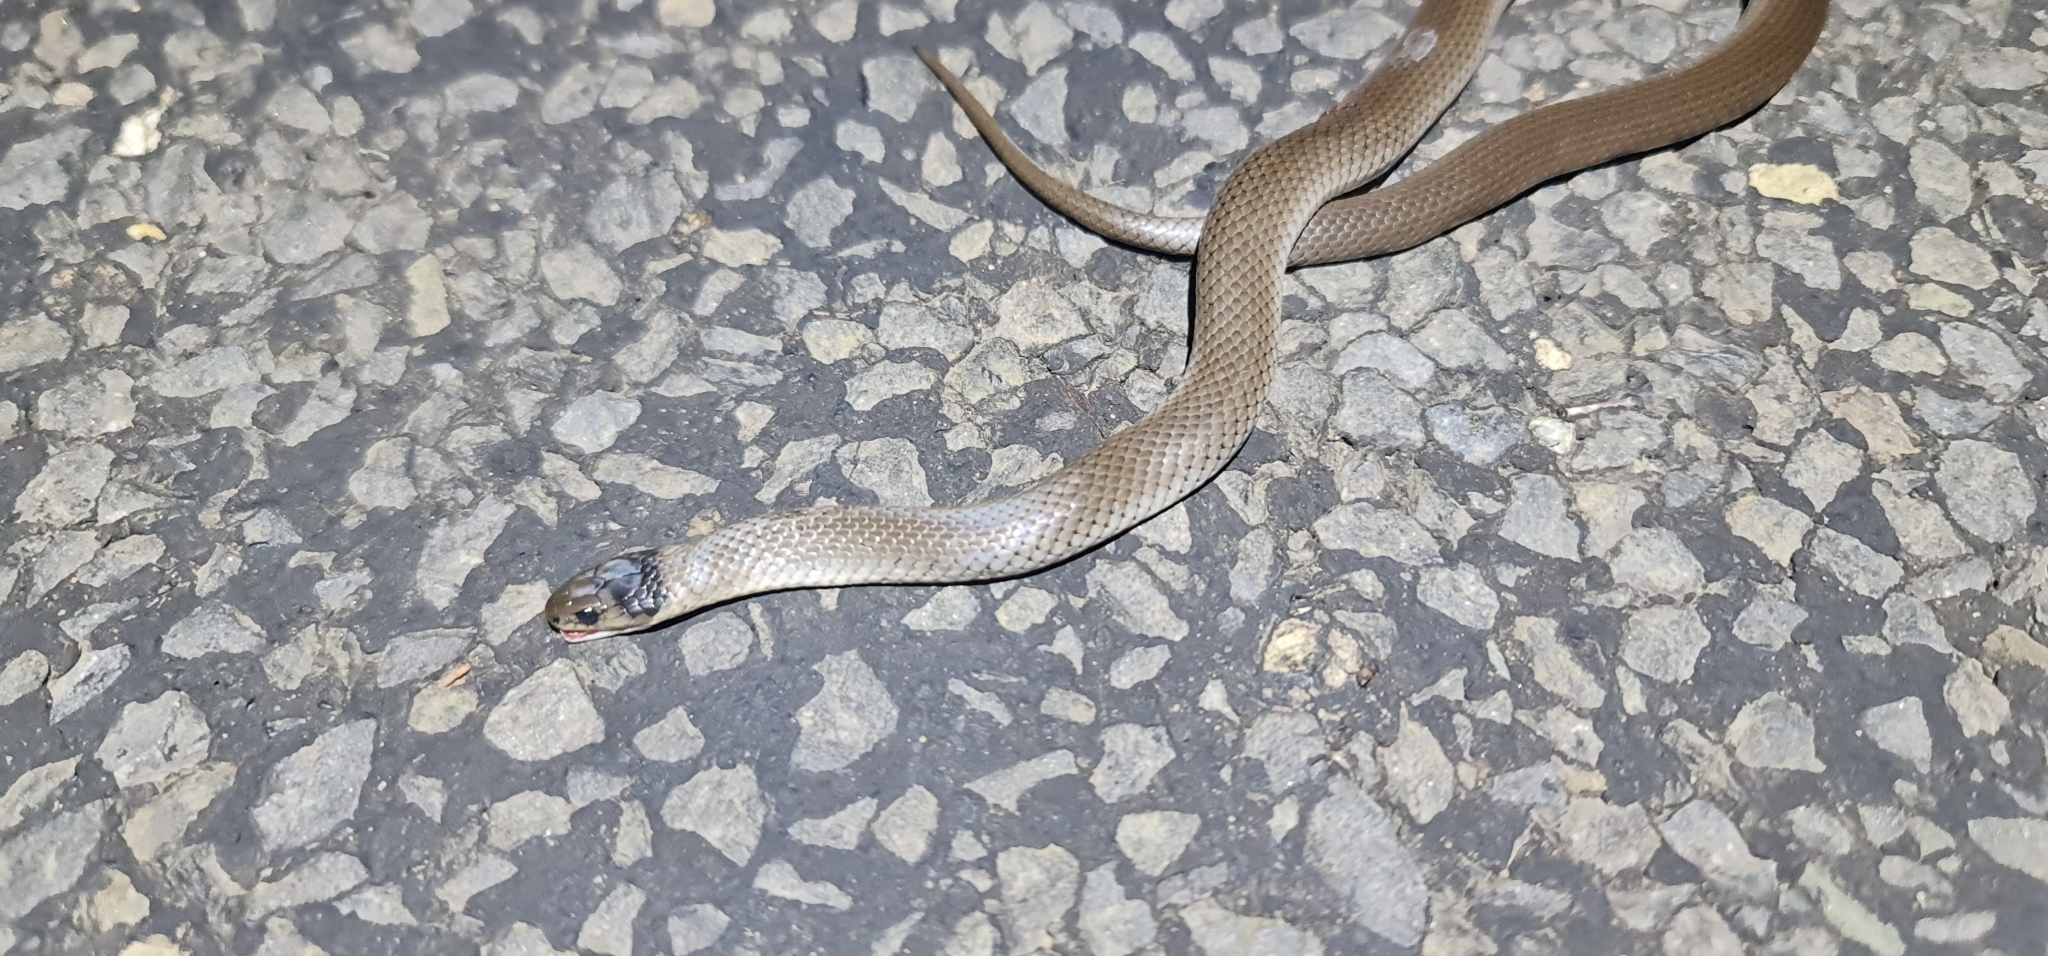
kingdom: Animalia
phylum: Chordata
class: Squamata
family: Elapidae
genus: Hemiaspis
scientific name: Hemiaspis damelii
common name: Grey snake
